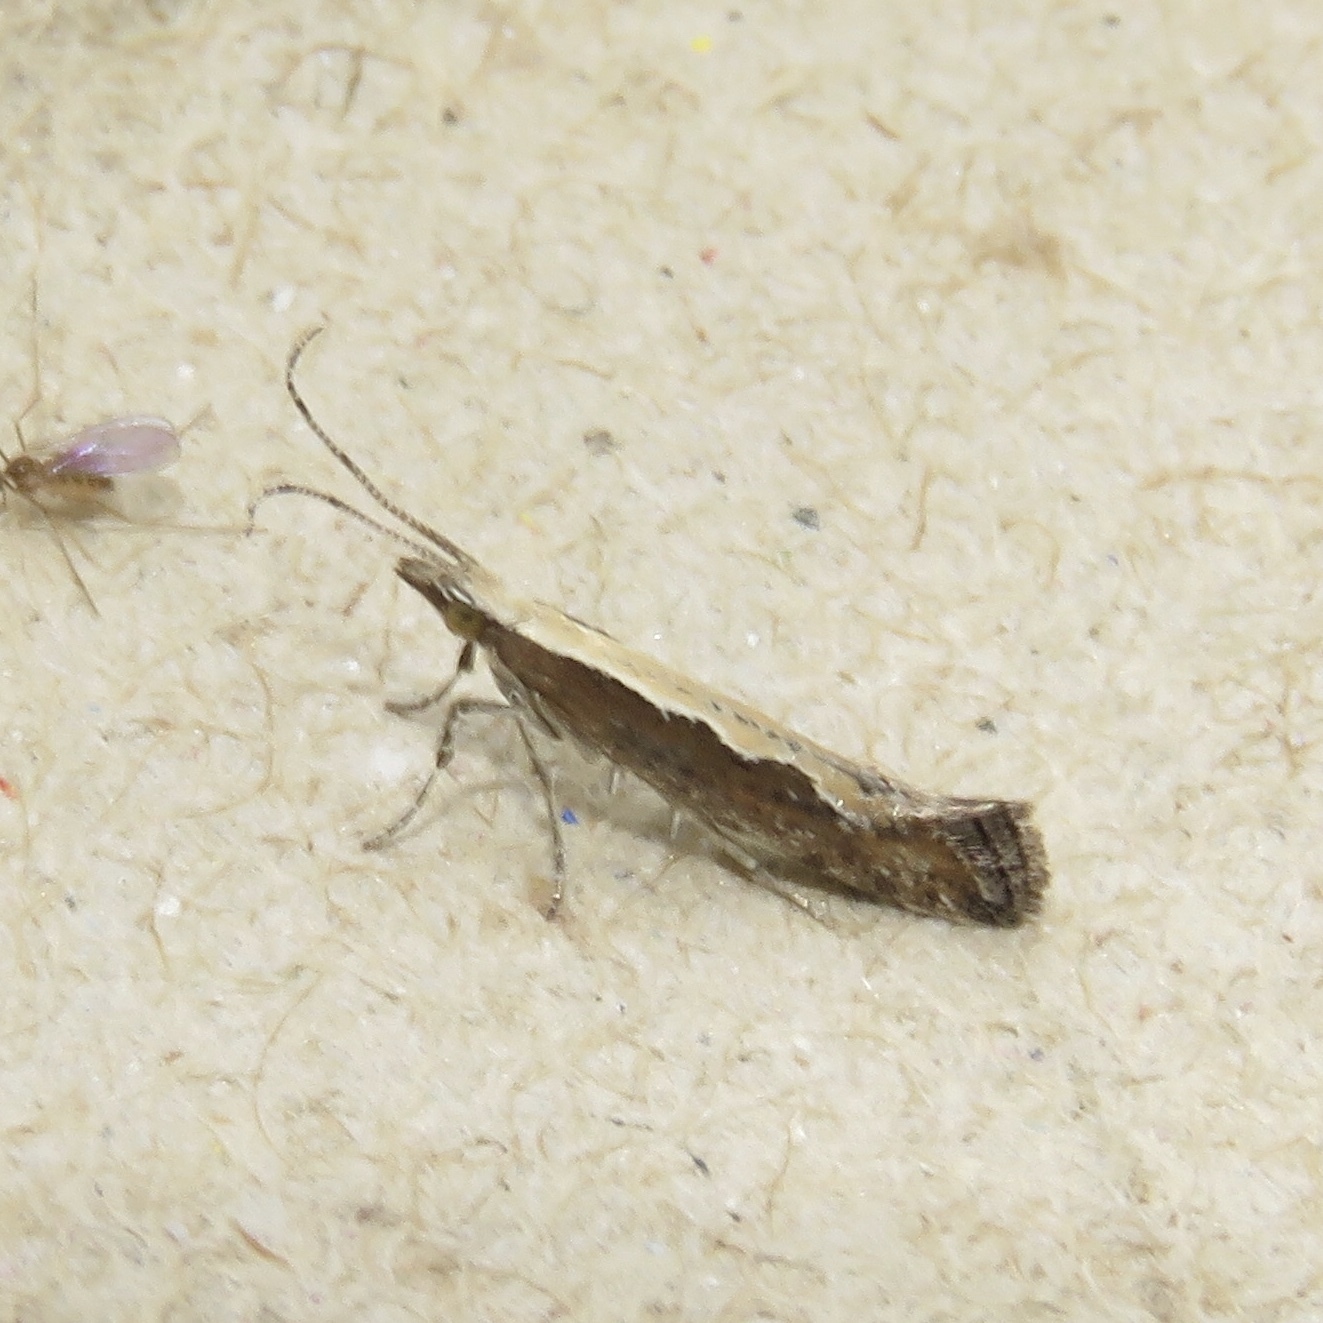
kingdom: Animalia
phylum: Arthropoda
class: Insecta
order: Lepidoptera
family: Plutellidae
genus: Plutella
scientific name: Plutella xylostella
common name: Diamond-back moth
